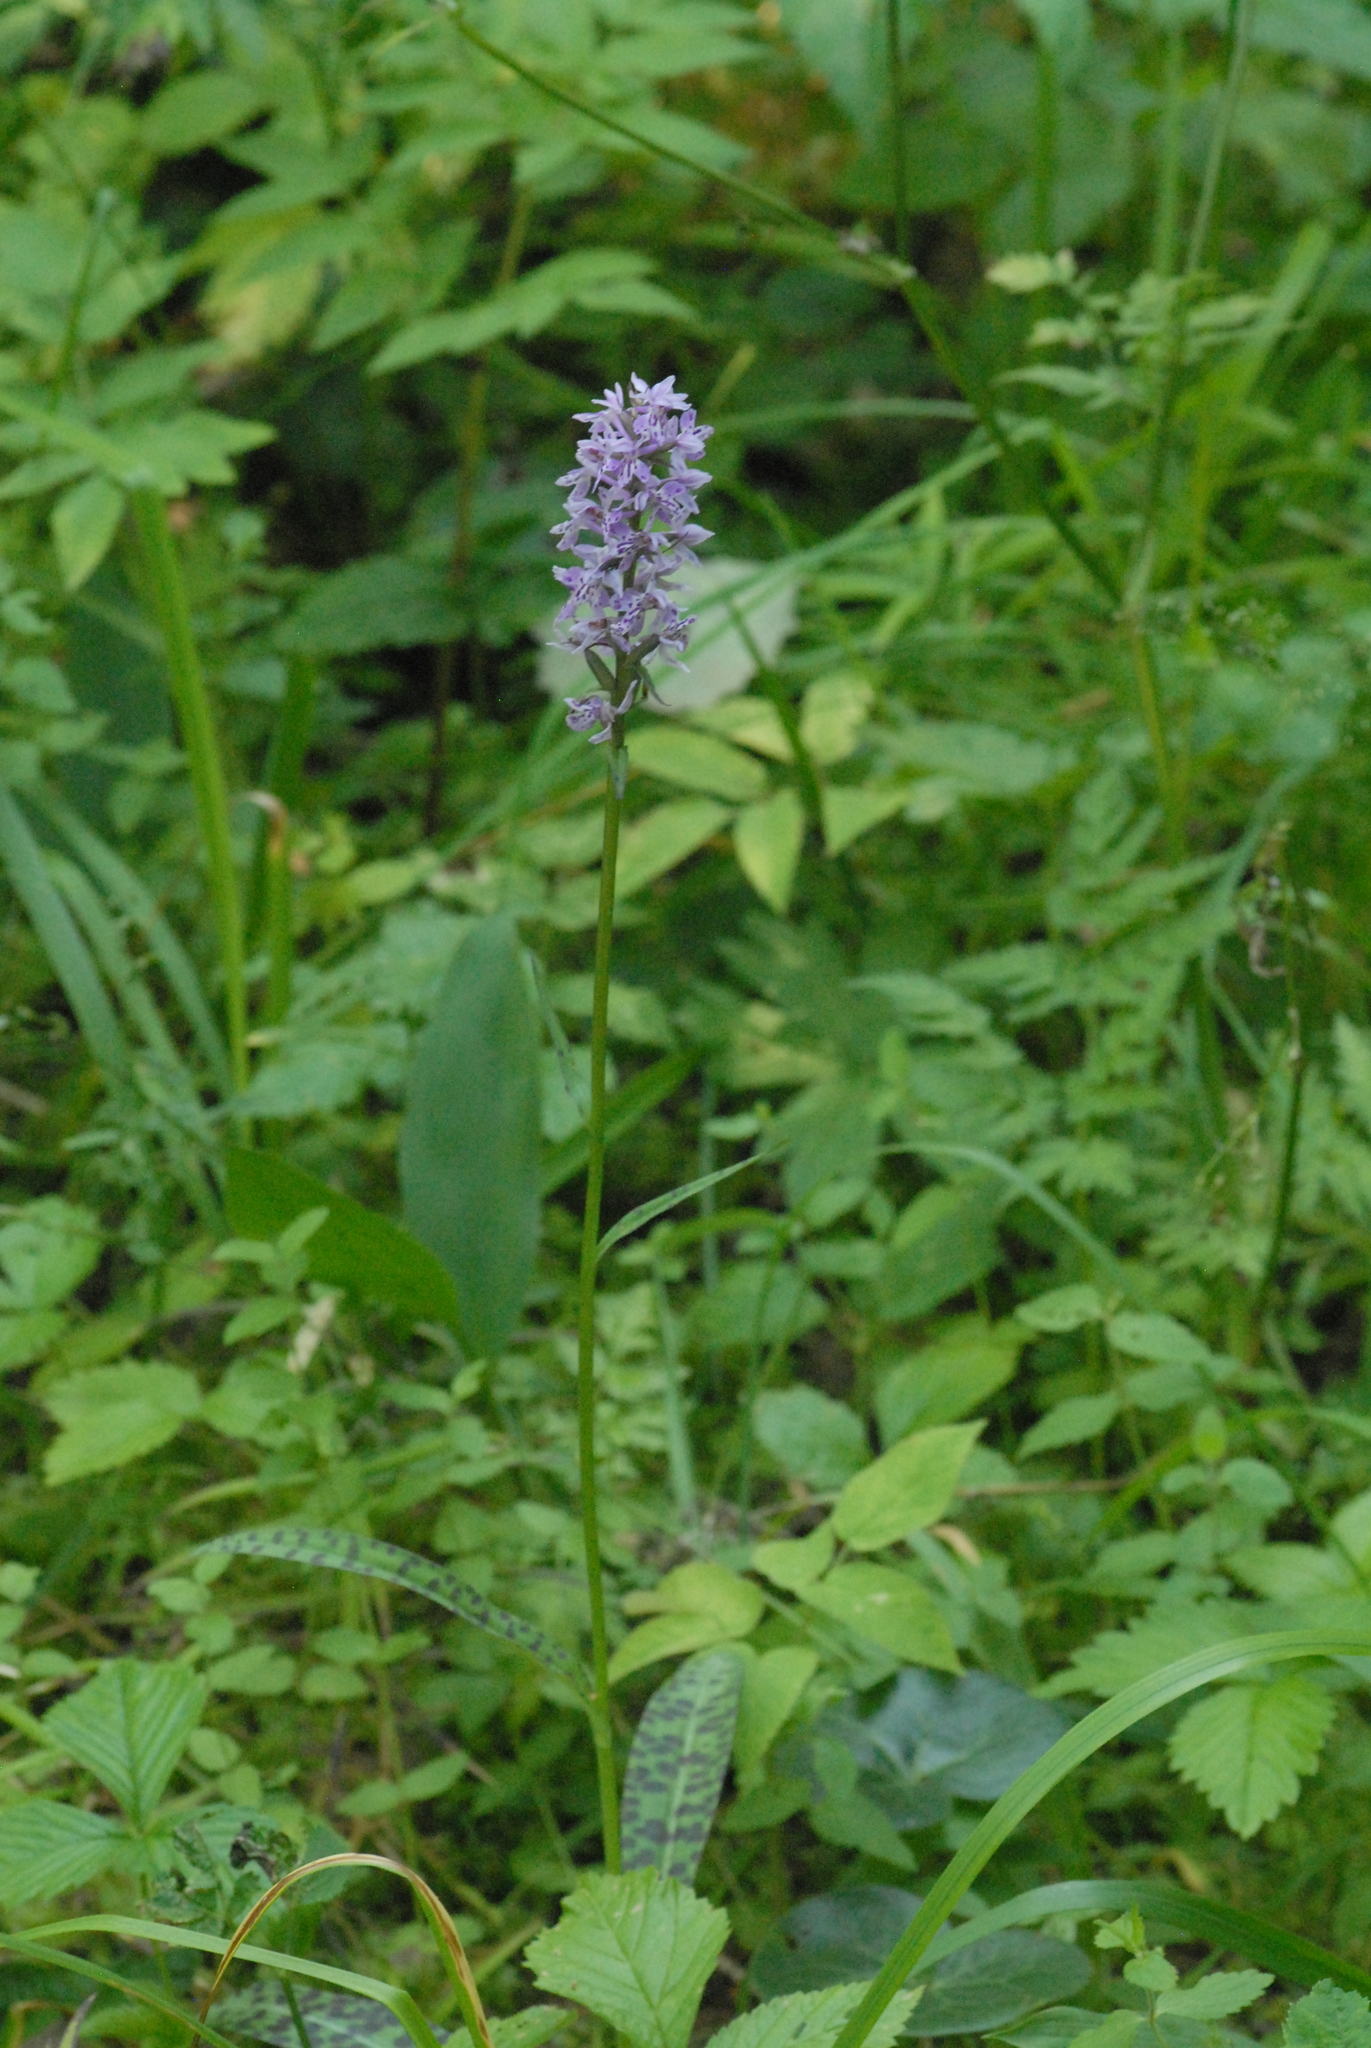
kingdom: Plantae
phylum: Tracheophyta
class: Liliopsida
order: Asparagales
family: Orchidaceae
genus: Dactylorhiza
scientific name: Dactylorhiza maculata
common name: Heath spotted-orchid
